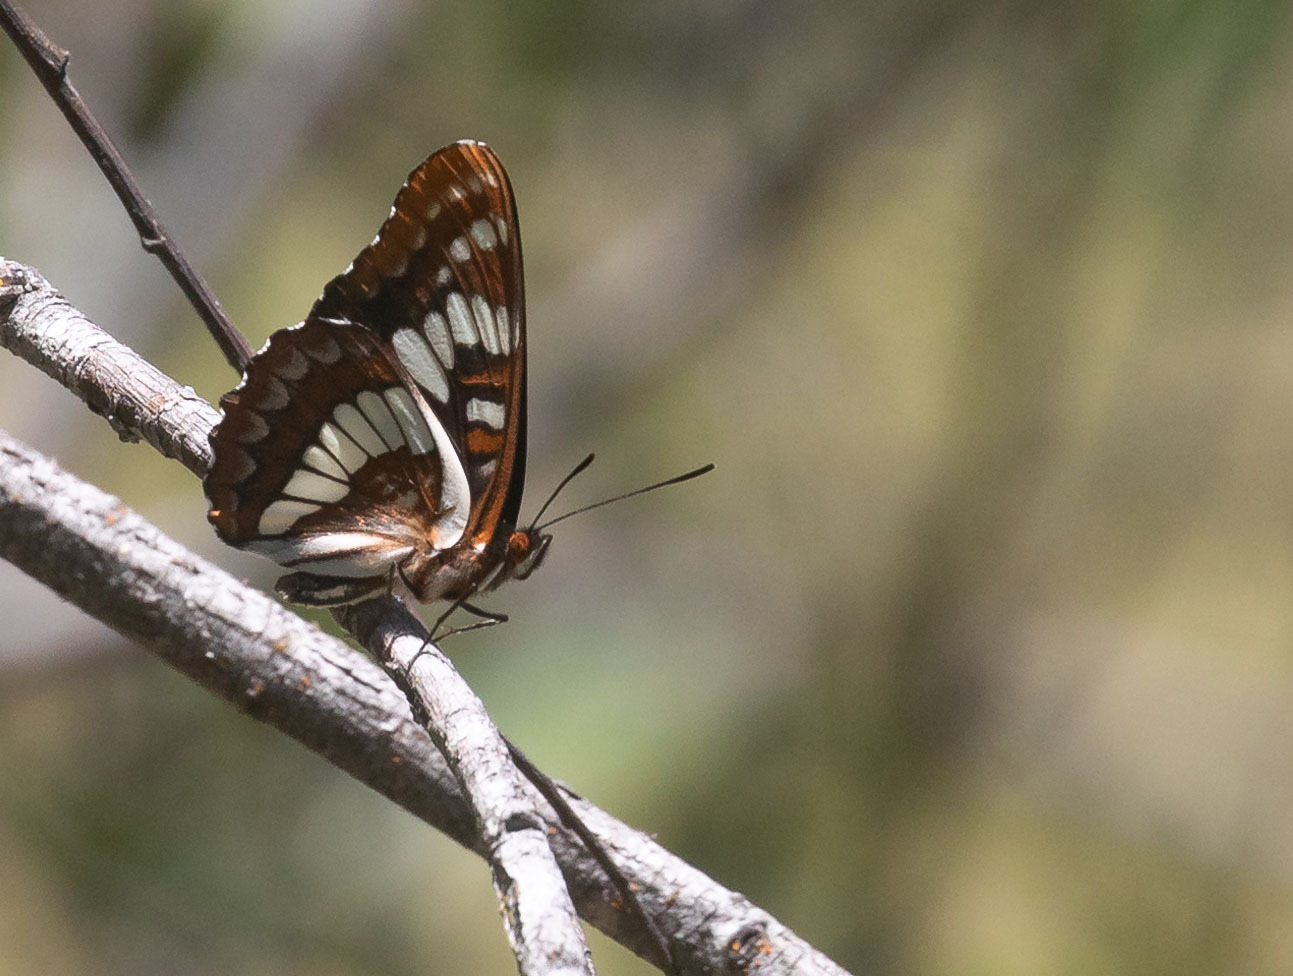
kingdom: Animalia
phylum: Arthropoda
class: Insecta
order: Lepidoptera
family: Nymphalidae
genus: Limenitis
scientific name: Limenitis lorquini
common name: Lorquin's admiral
